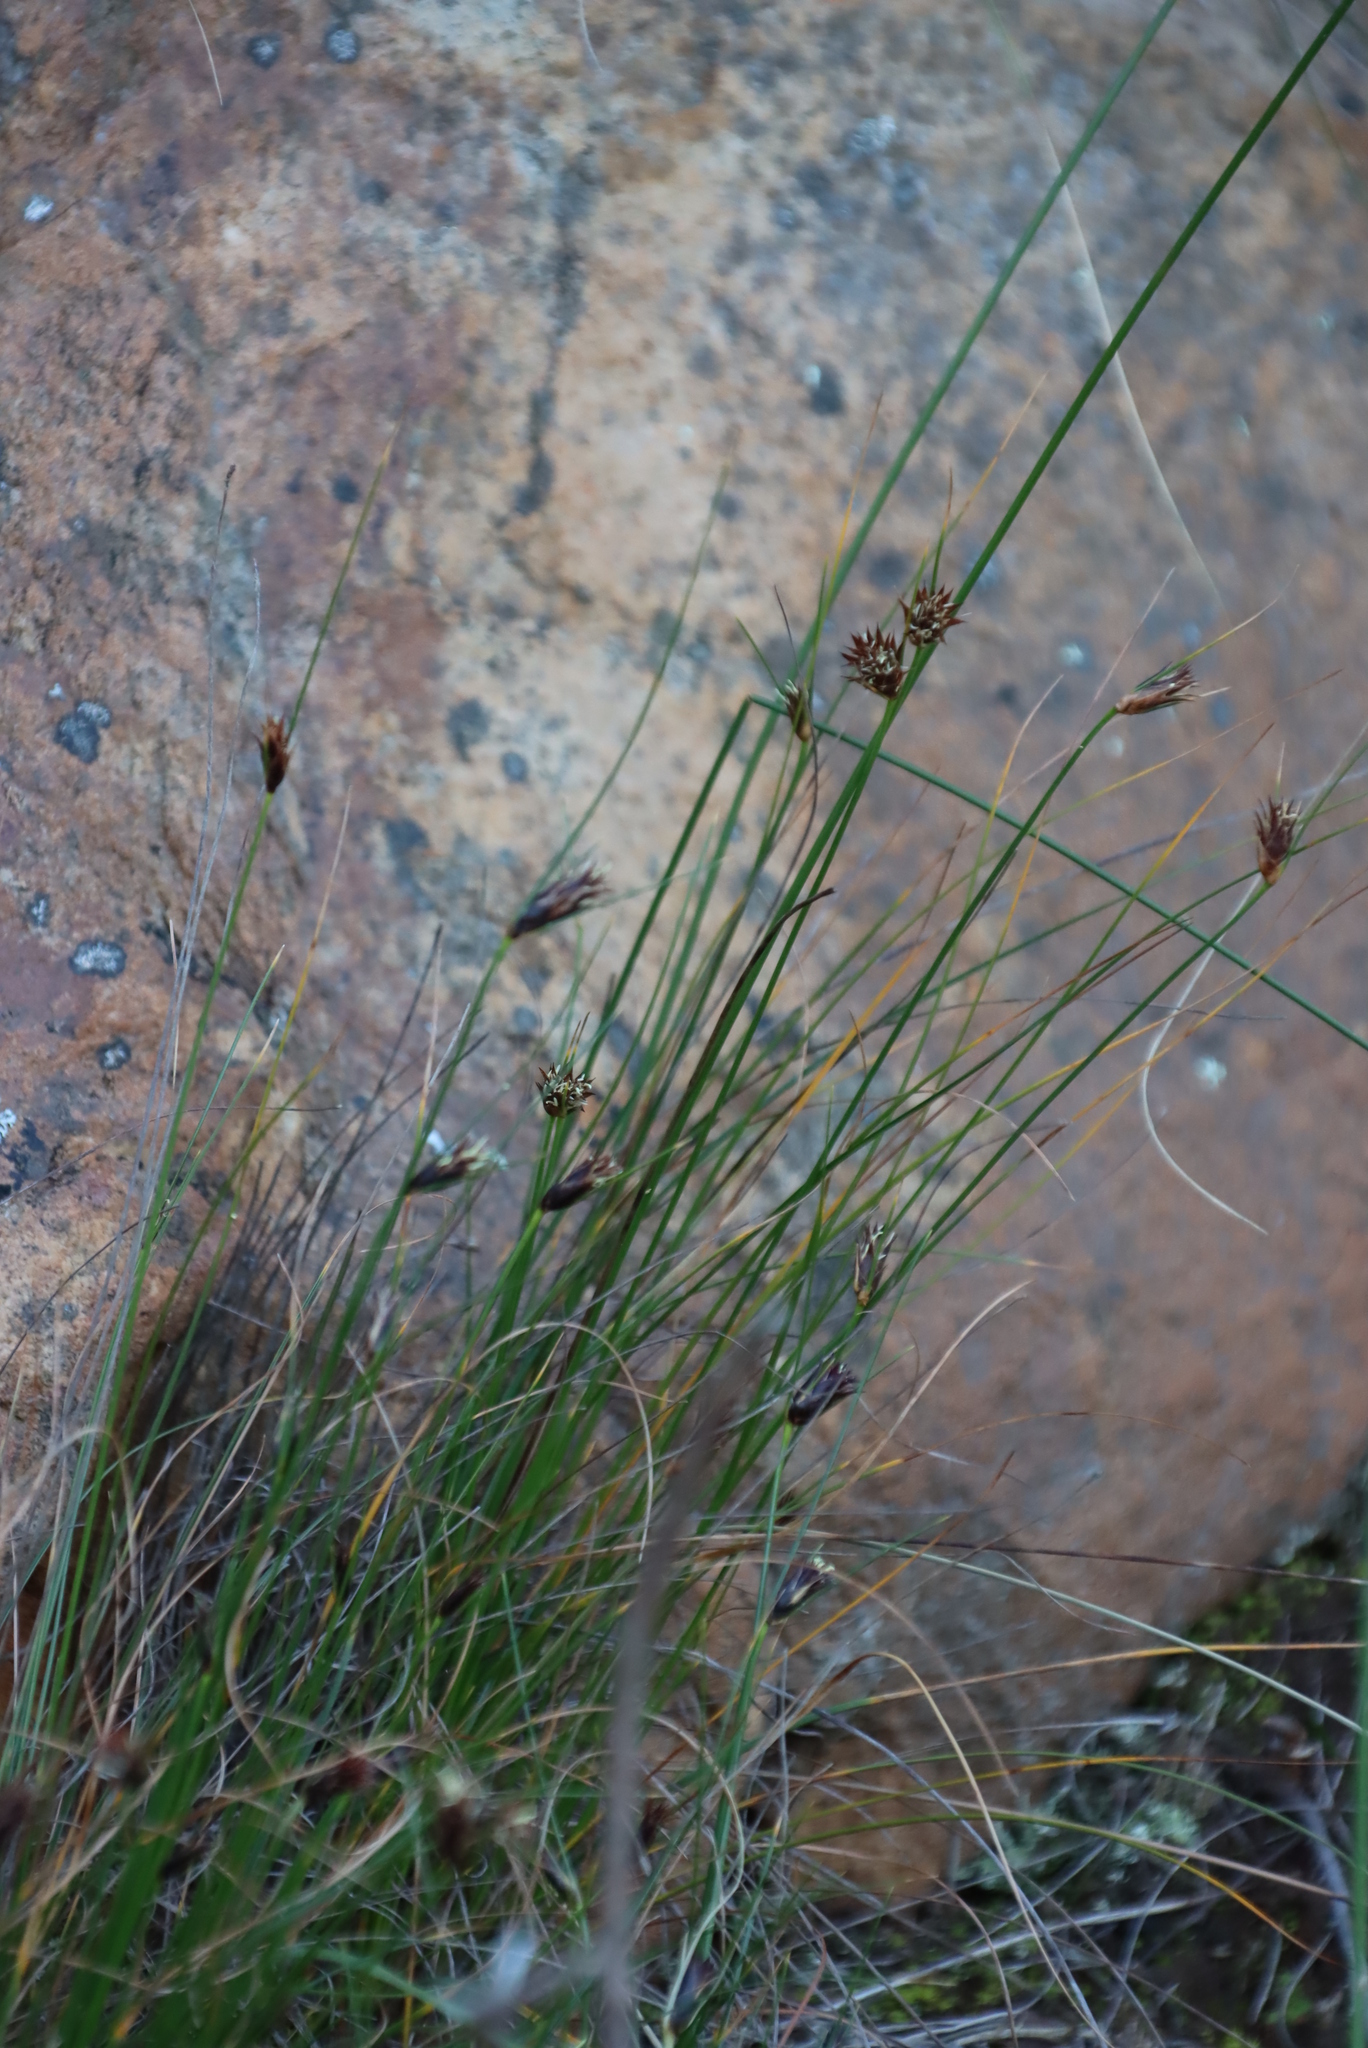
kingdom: Plantae
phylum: Tracheophyta
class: Liliopsida
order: Poales
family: Cyperaceae
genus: Ficinia
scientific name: Ficinia nigrescens
